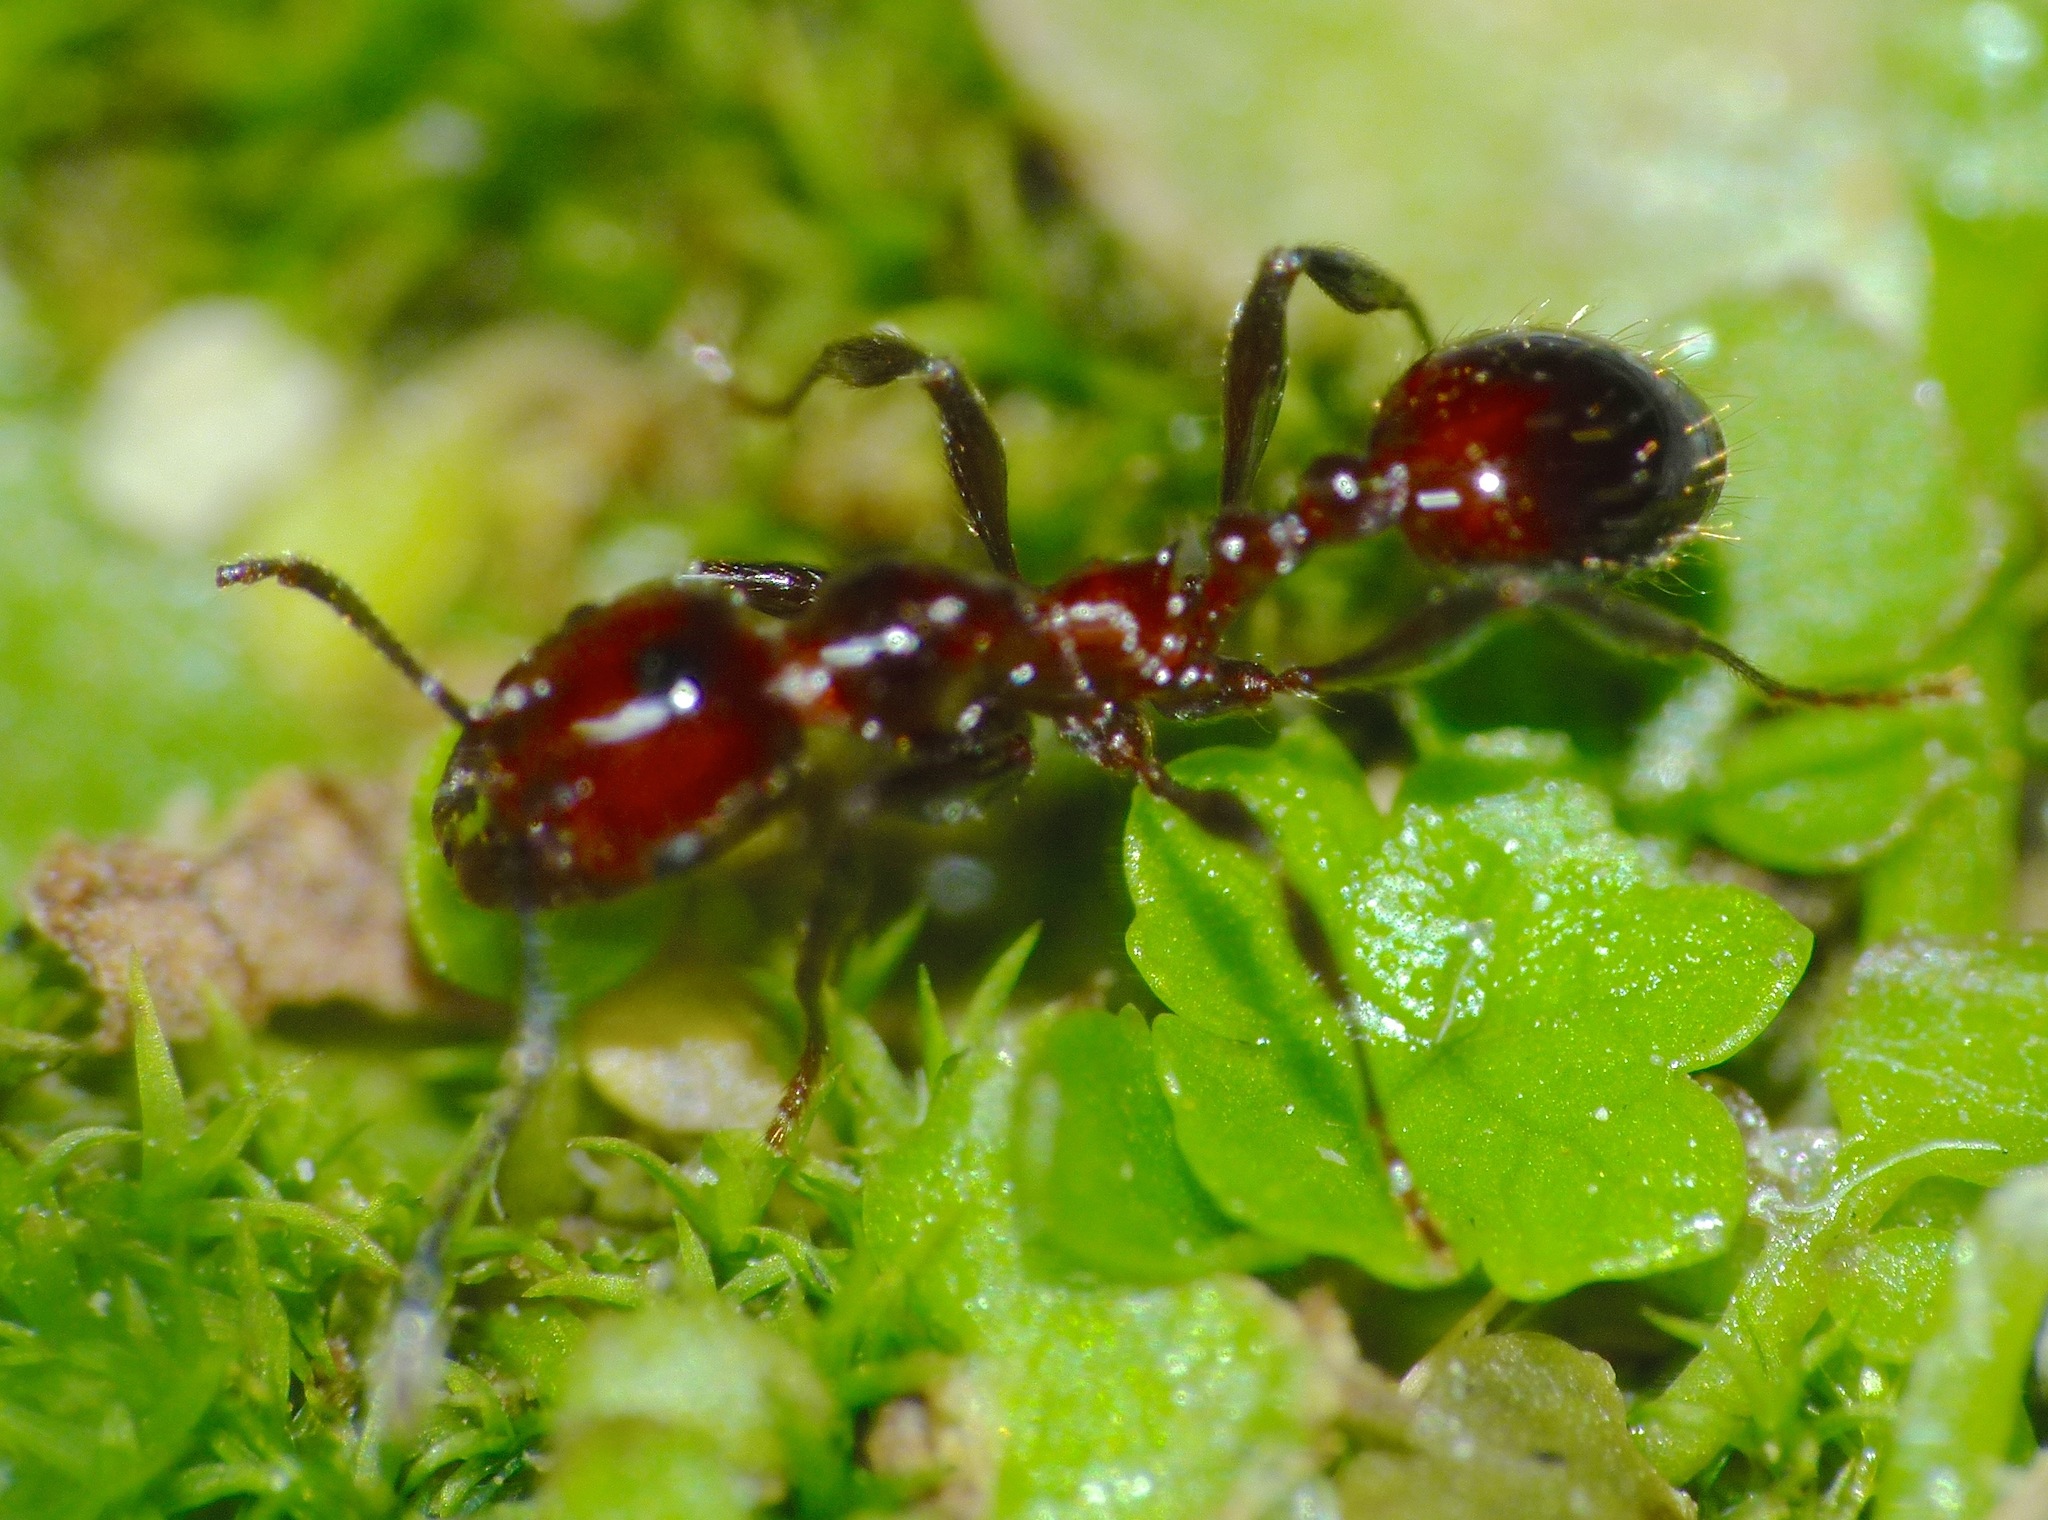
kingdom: Animalia
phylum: Arthropoda
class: Insecta
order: Hymenoptera
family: Formicidae
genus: Huberia
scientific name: Huberia striata
